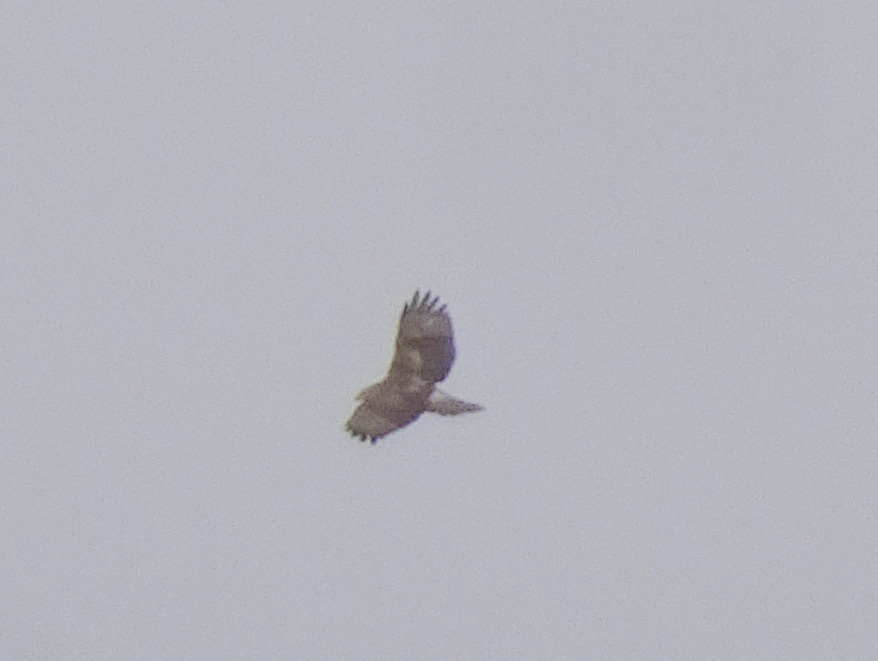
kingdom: Animalia
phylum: Chordata
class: Aves
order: Accipitriformes
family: Accipitridae
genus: Buteo
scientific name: Buteo jamaicensis
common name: Red-tailed hawk
